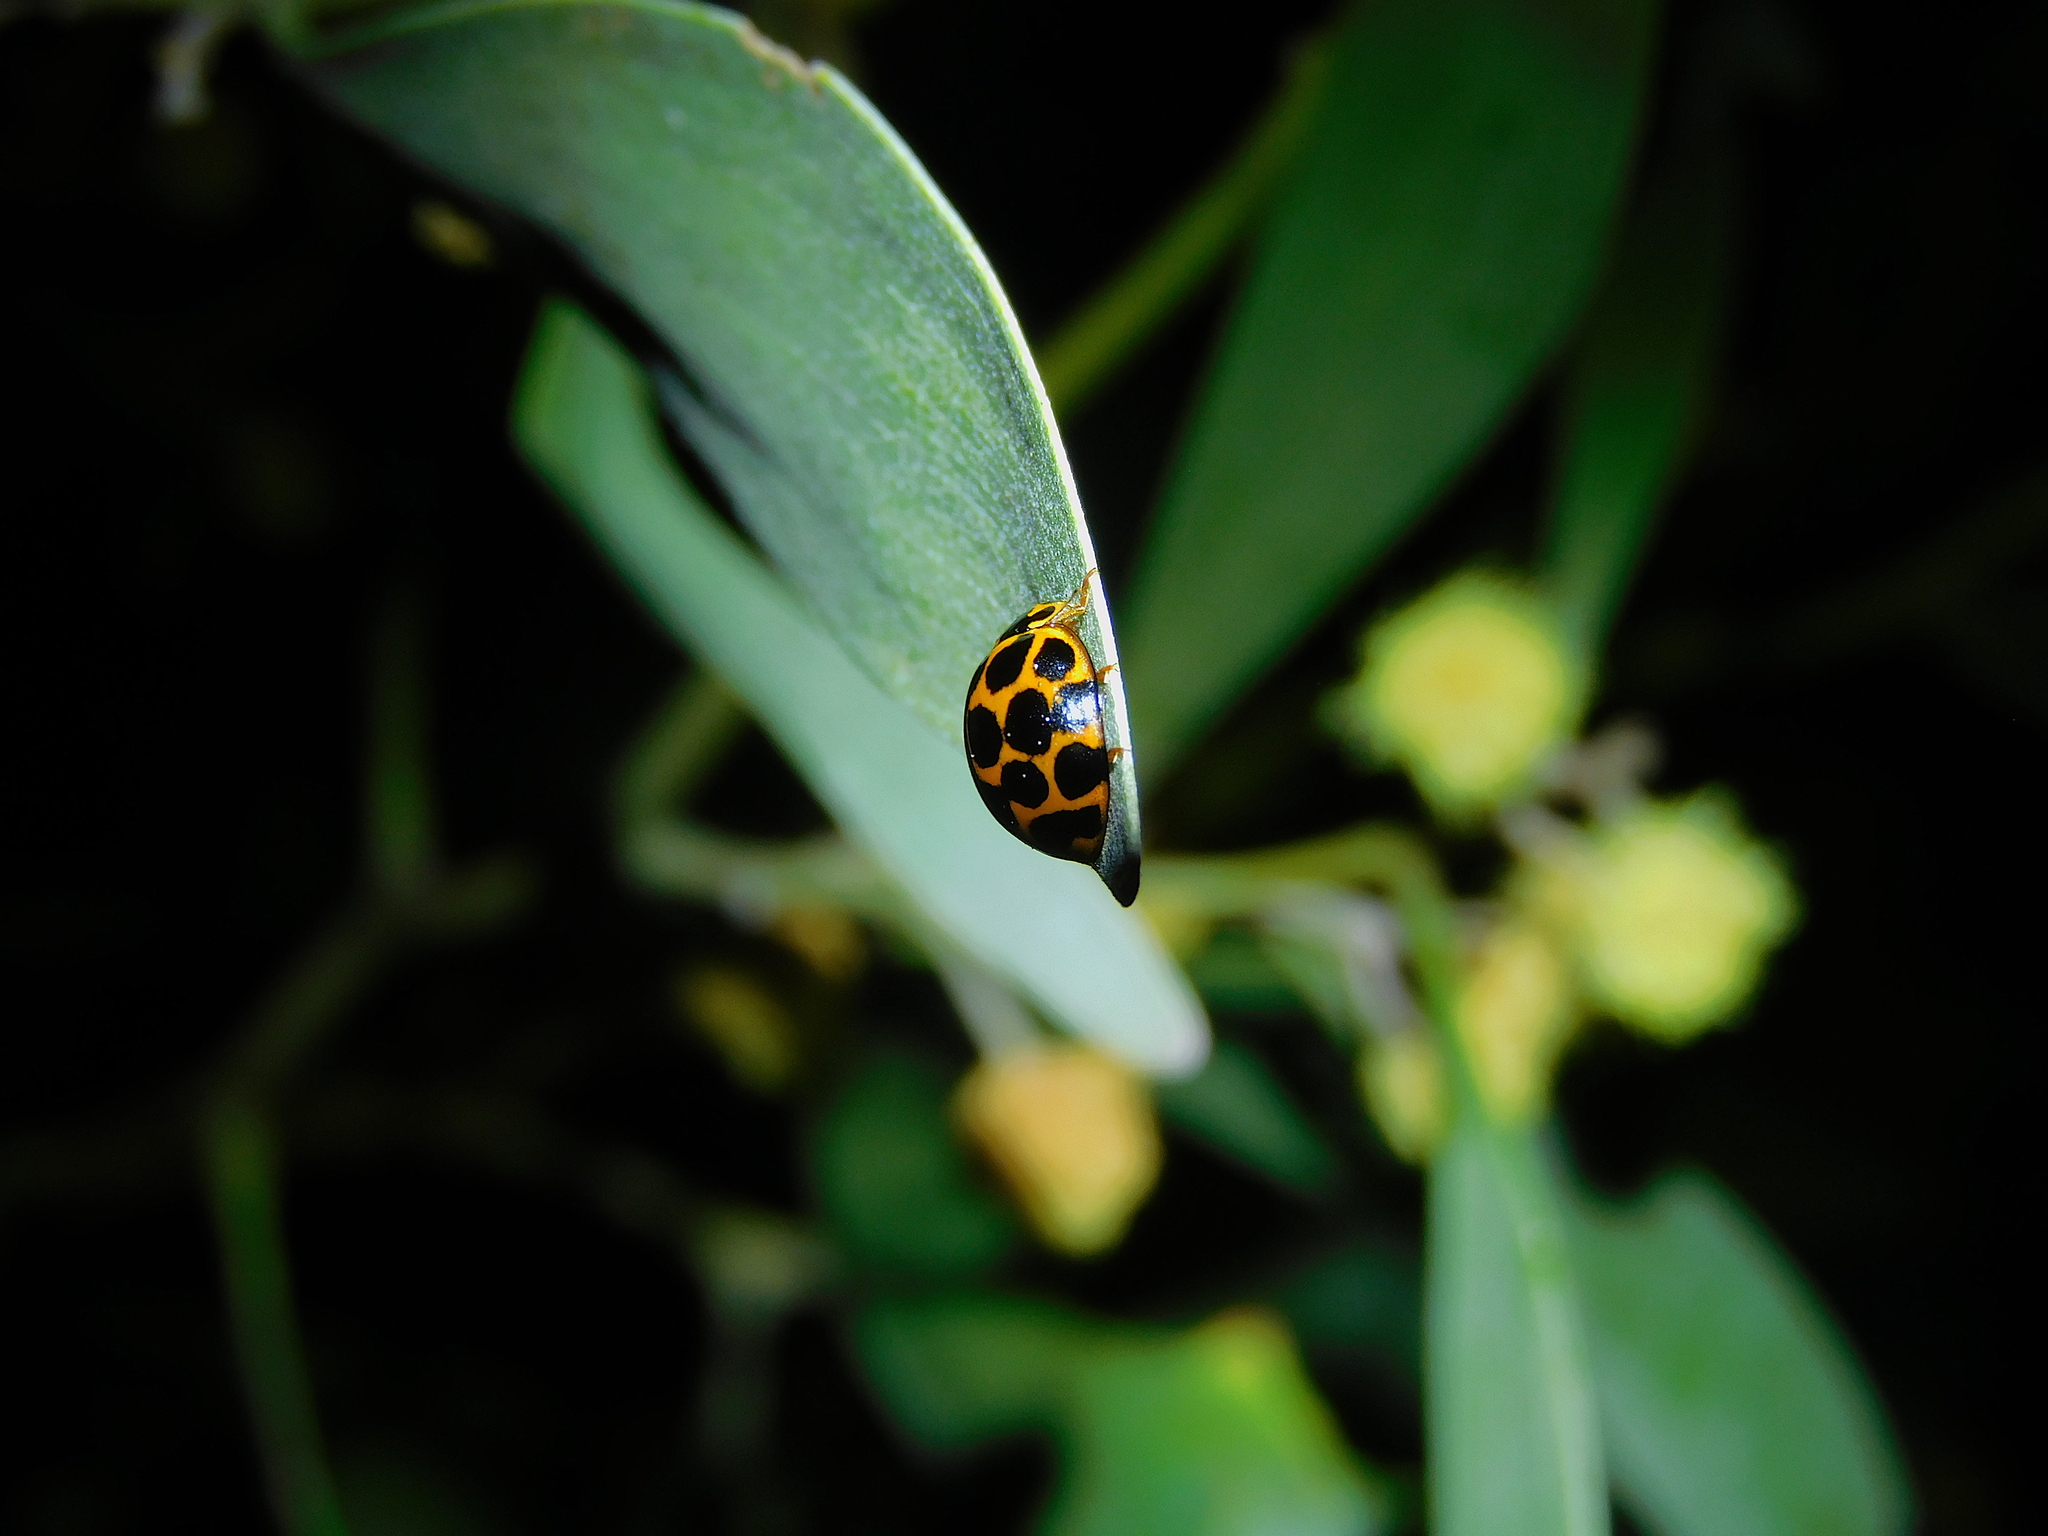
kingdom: Animalia
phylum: Arthropoda
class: Insecta
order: Coleoptera
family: Coccinellidae
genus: Harmonia
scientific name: Harmonia conformis
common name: Common spotted ladybird beetle
